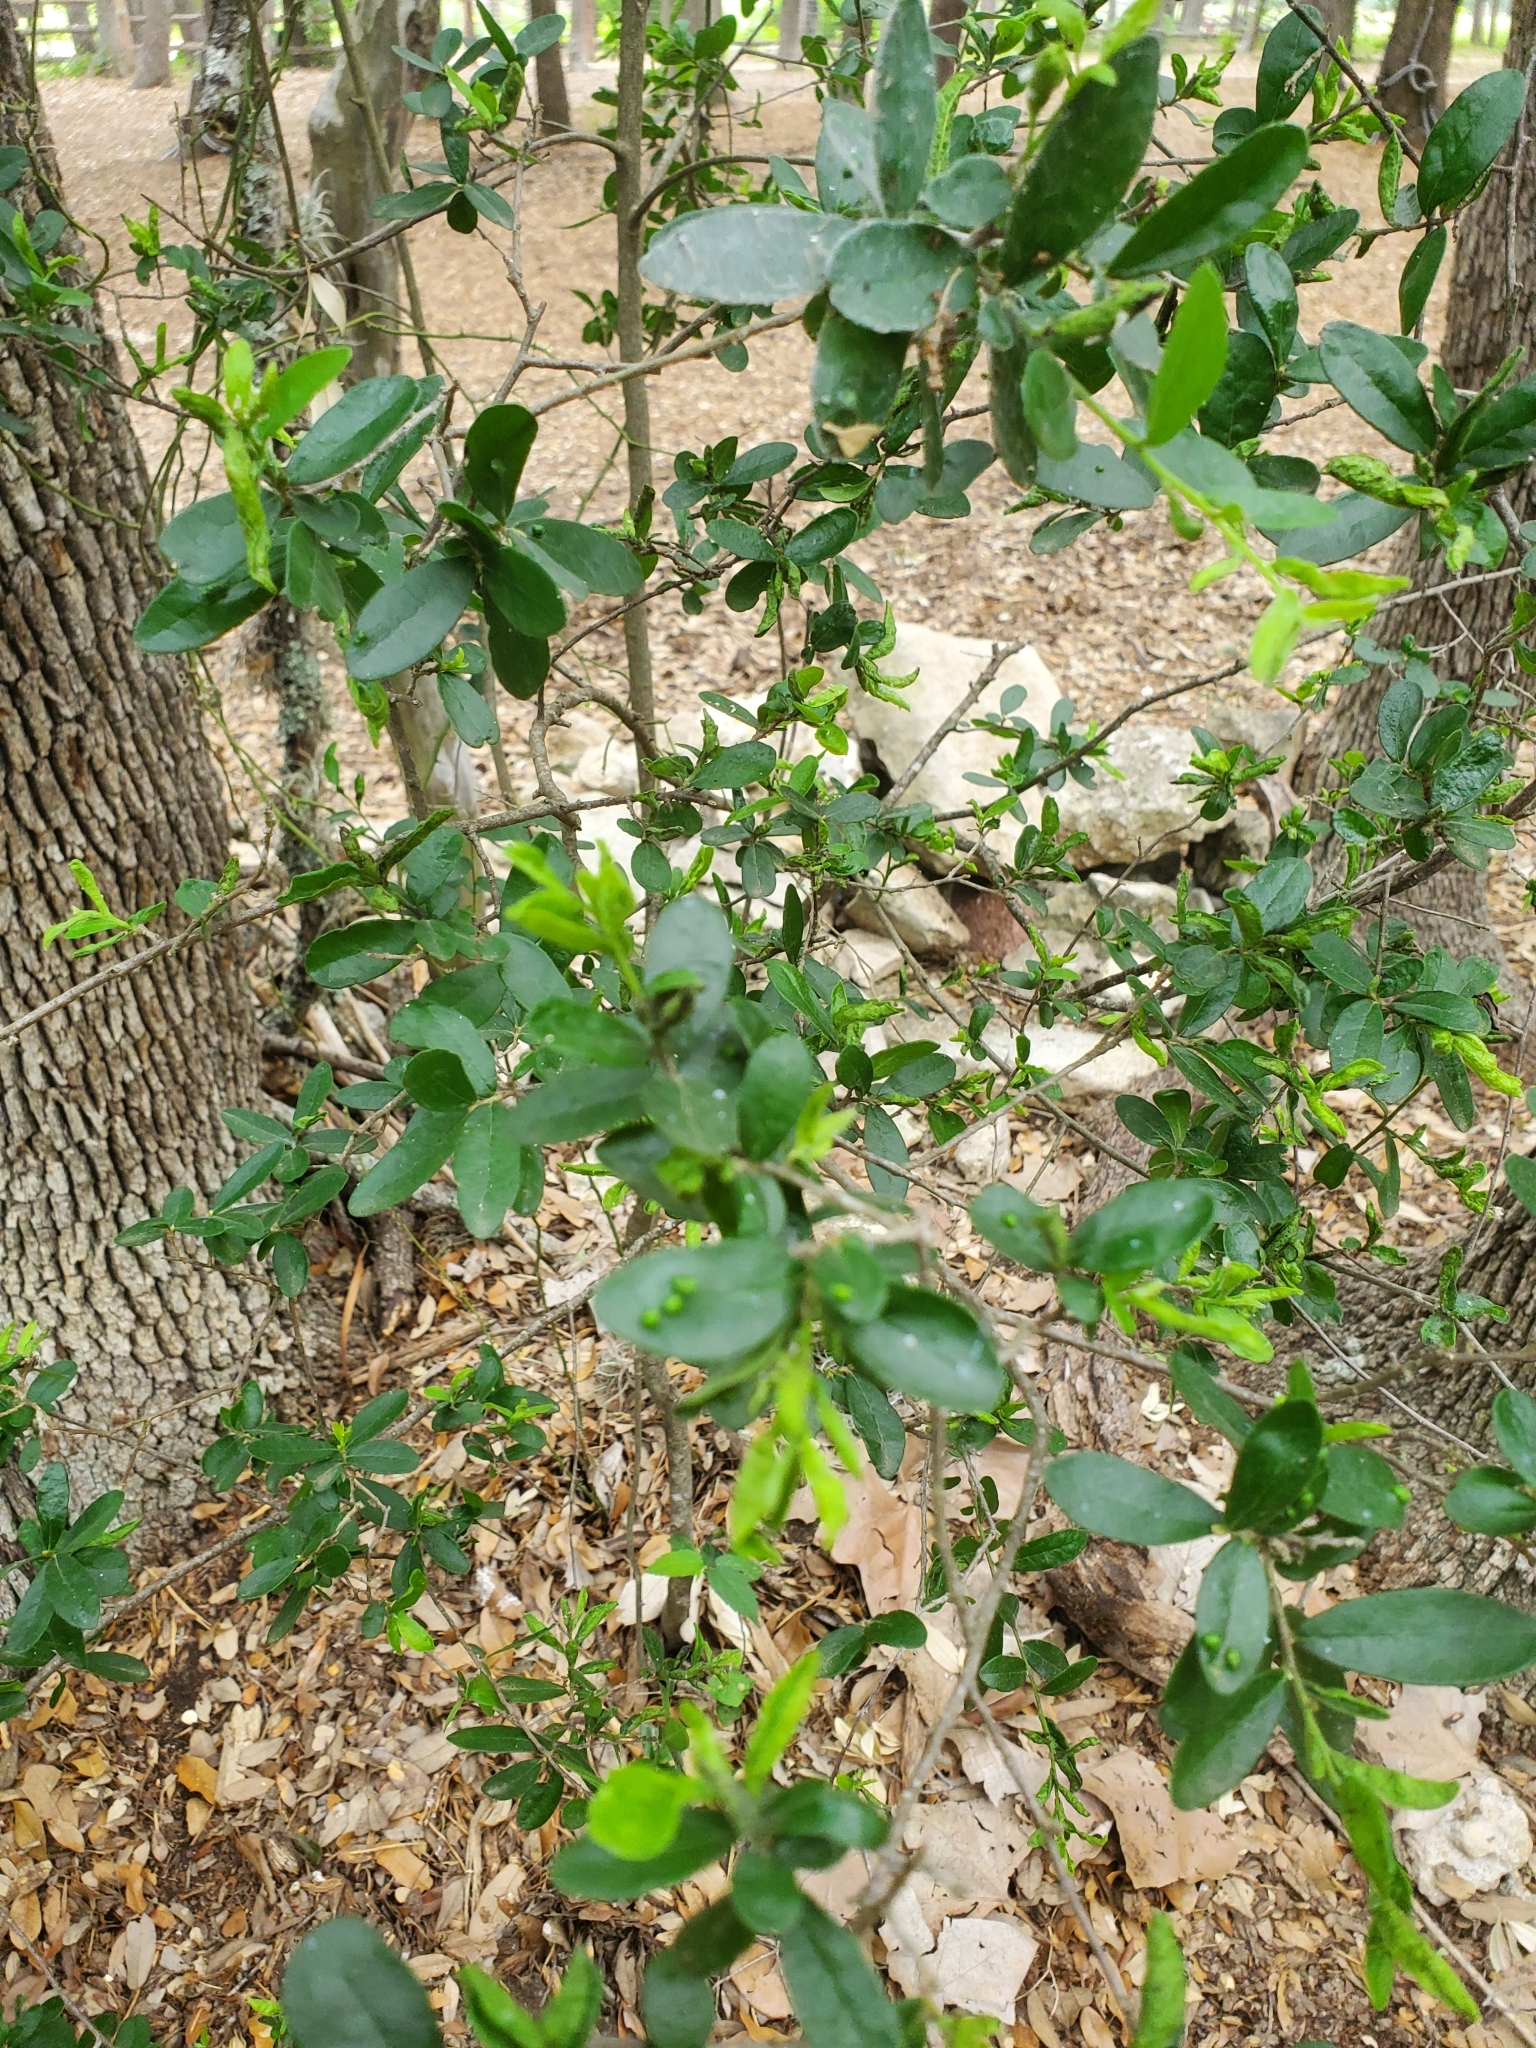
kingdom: Plantae
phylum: Tracheophyta
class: Magnoliopsida
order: Ericales
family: Ebenaceae
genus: Diospyros
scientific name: Diospyros texana
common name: Texas persimmon
